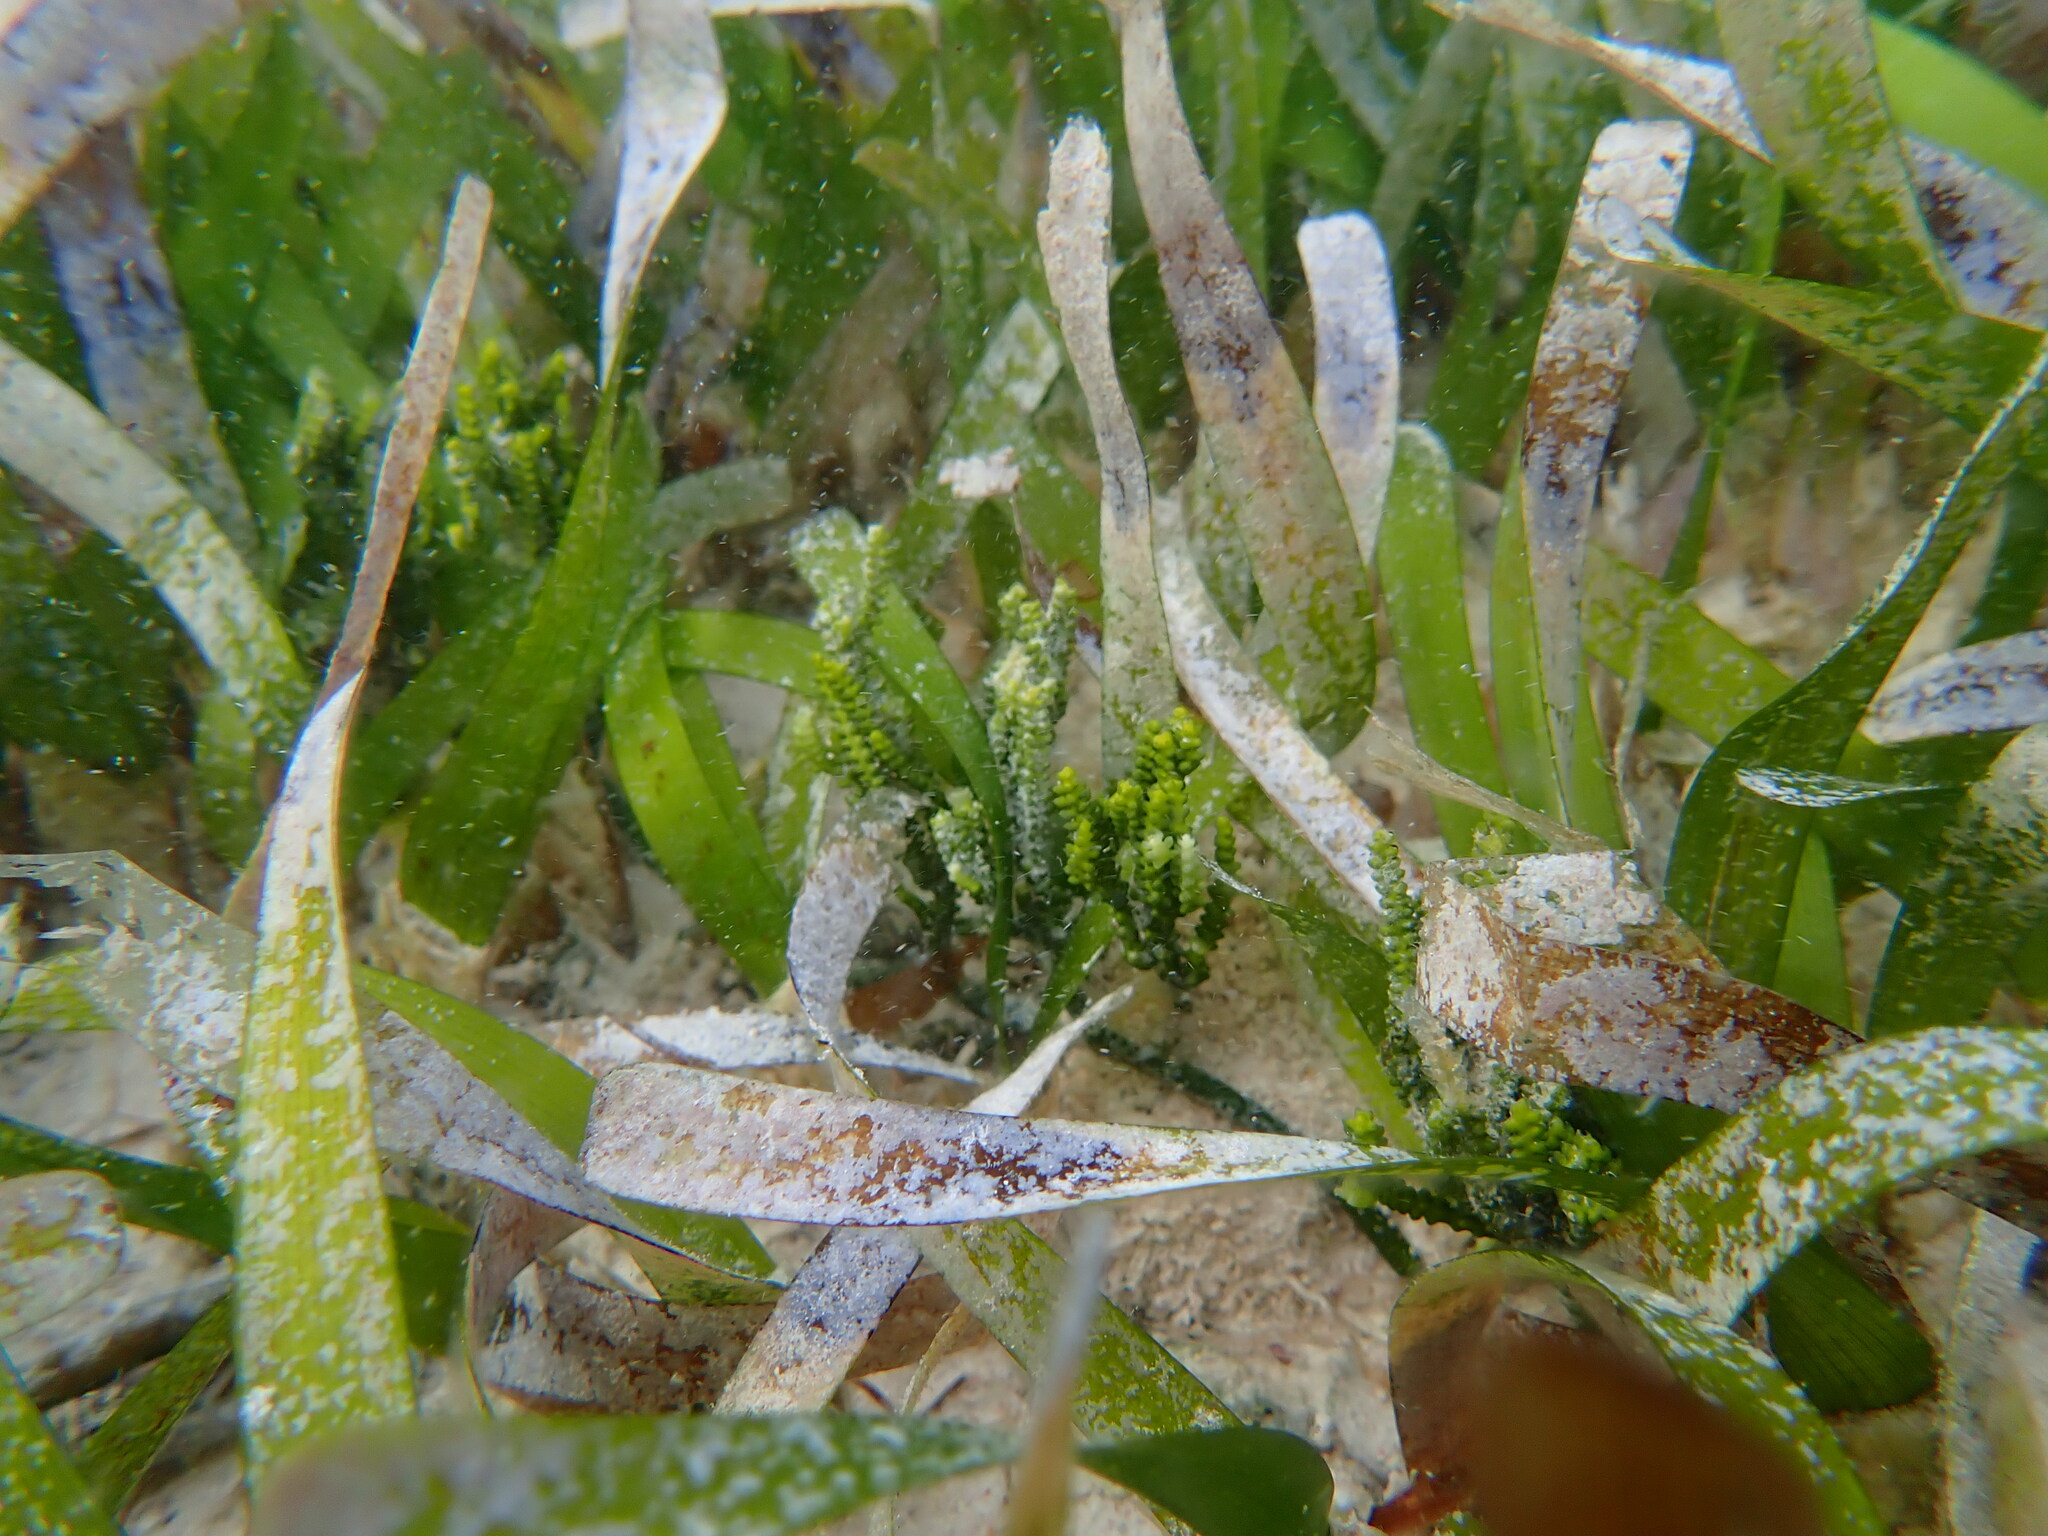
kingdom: Plantae
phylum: Tracheophyta
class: Liliopsida
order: Alismatales
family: Hydrocharitaceae
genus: Thalassia
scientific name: Thalassia testudinum
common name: Species code: tt
